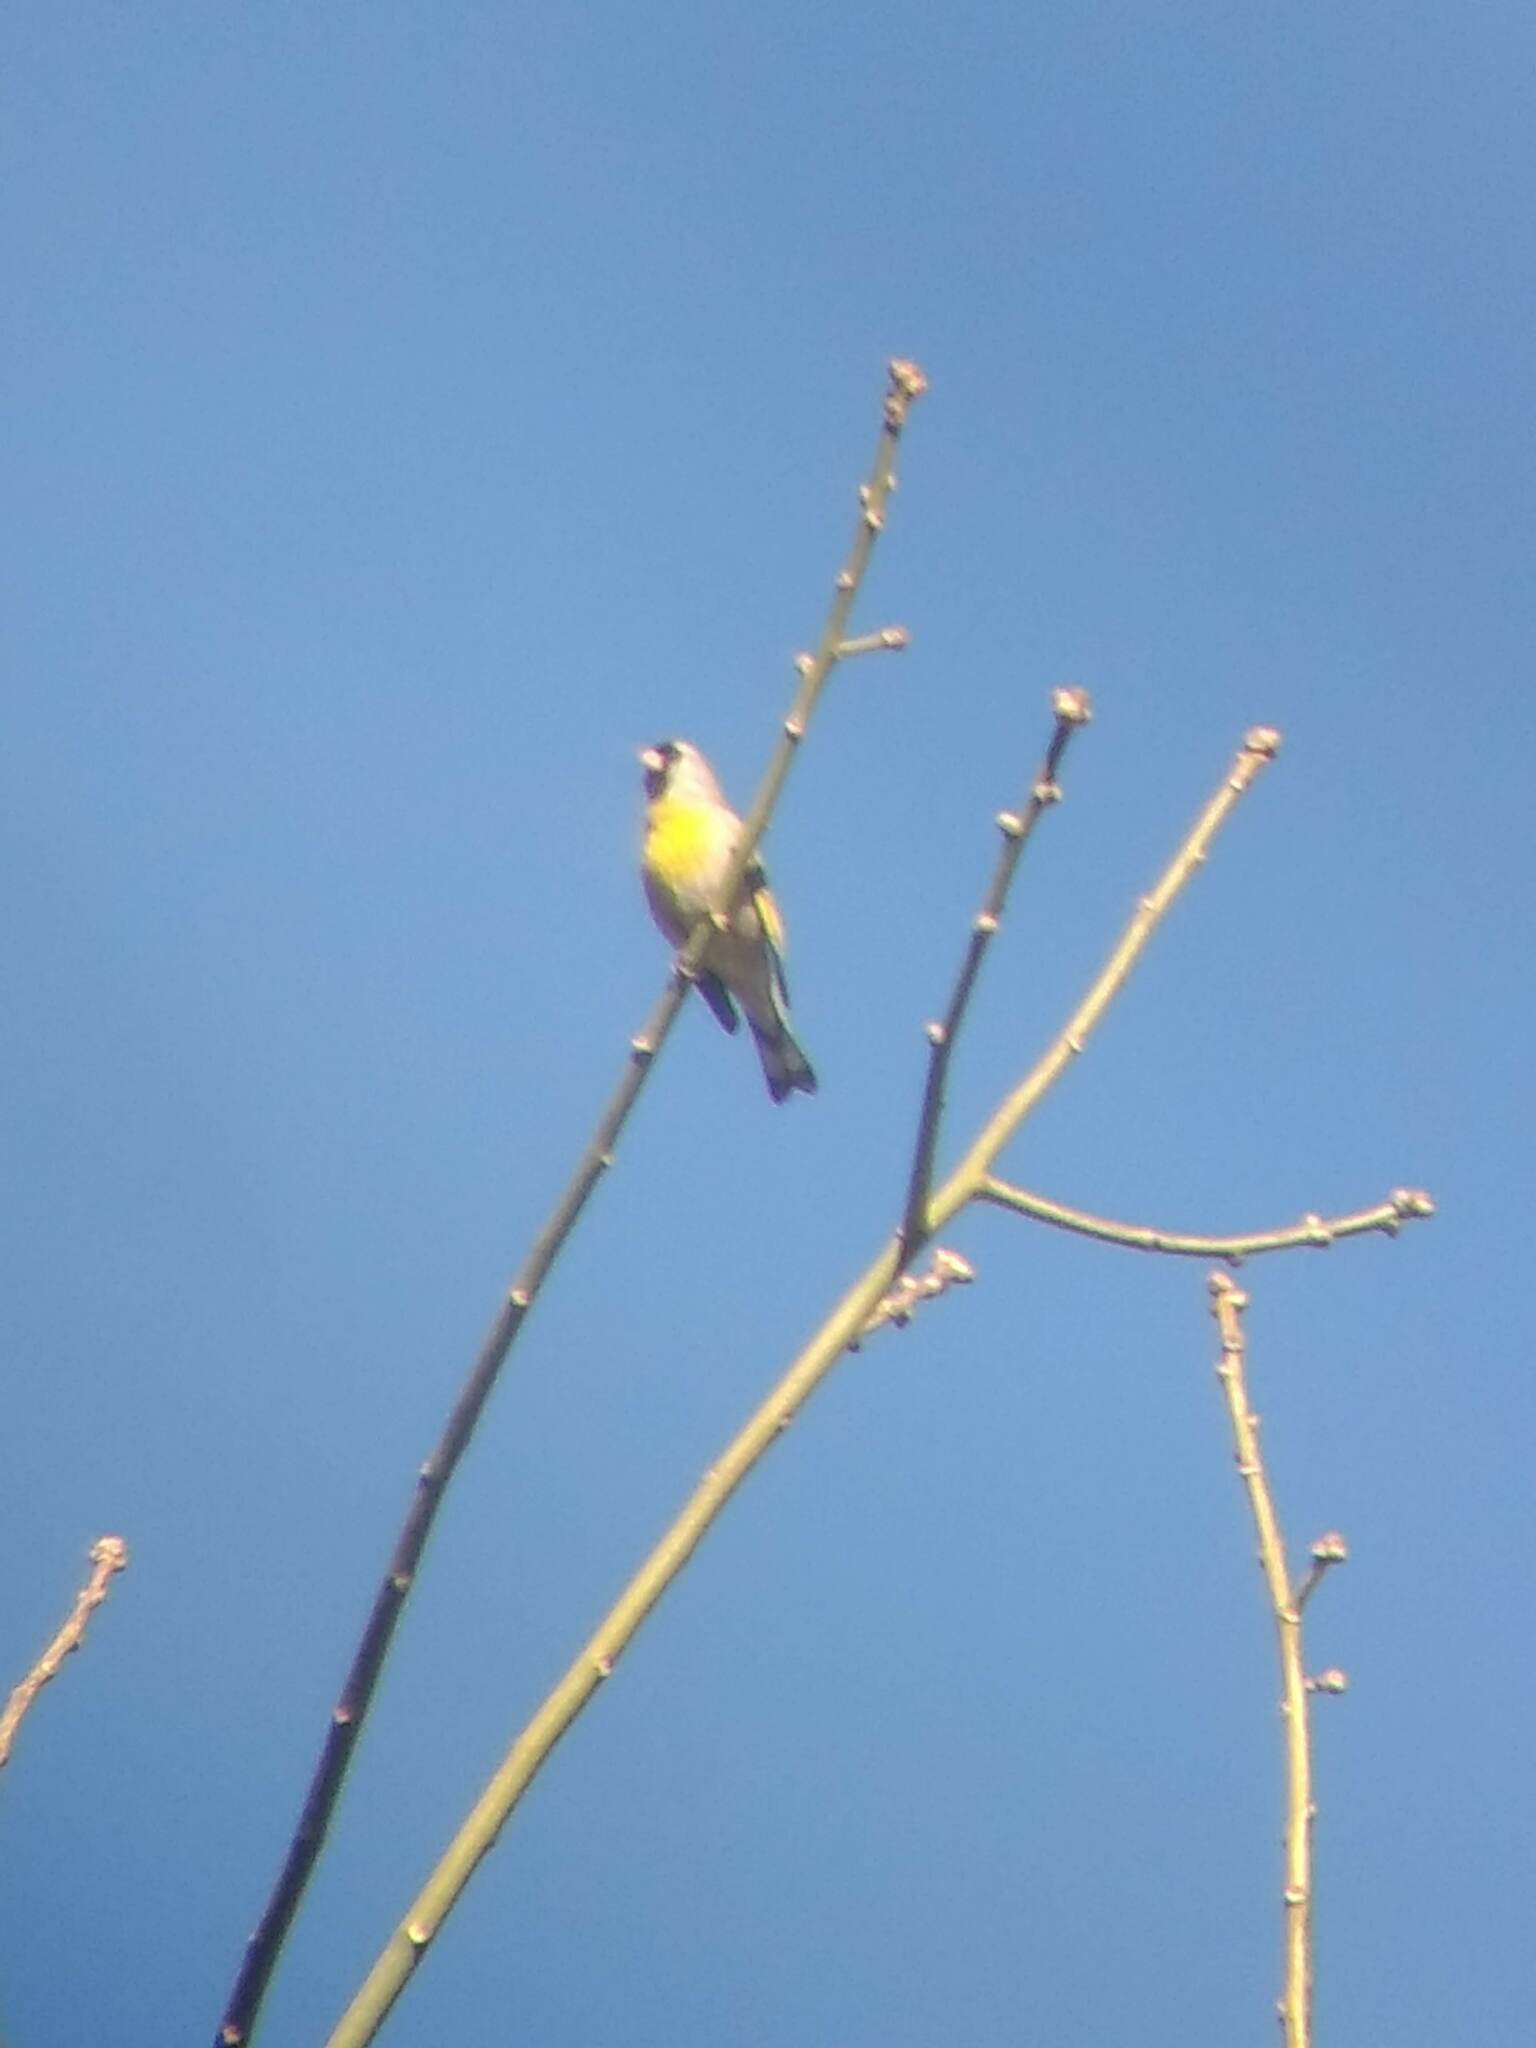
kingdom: Animalia
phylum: Chordata
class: Aves
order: Passeriformes
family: Fringillidae
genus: Spinus
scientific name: Spinus lawrencei
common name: Lawrence's goldfinch
